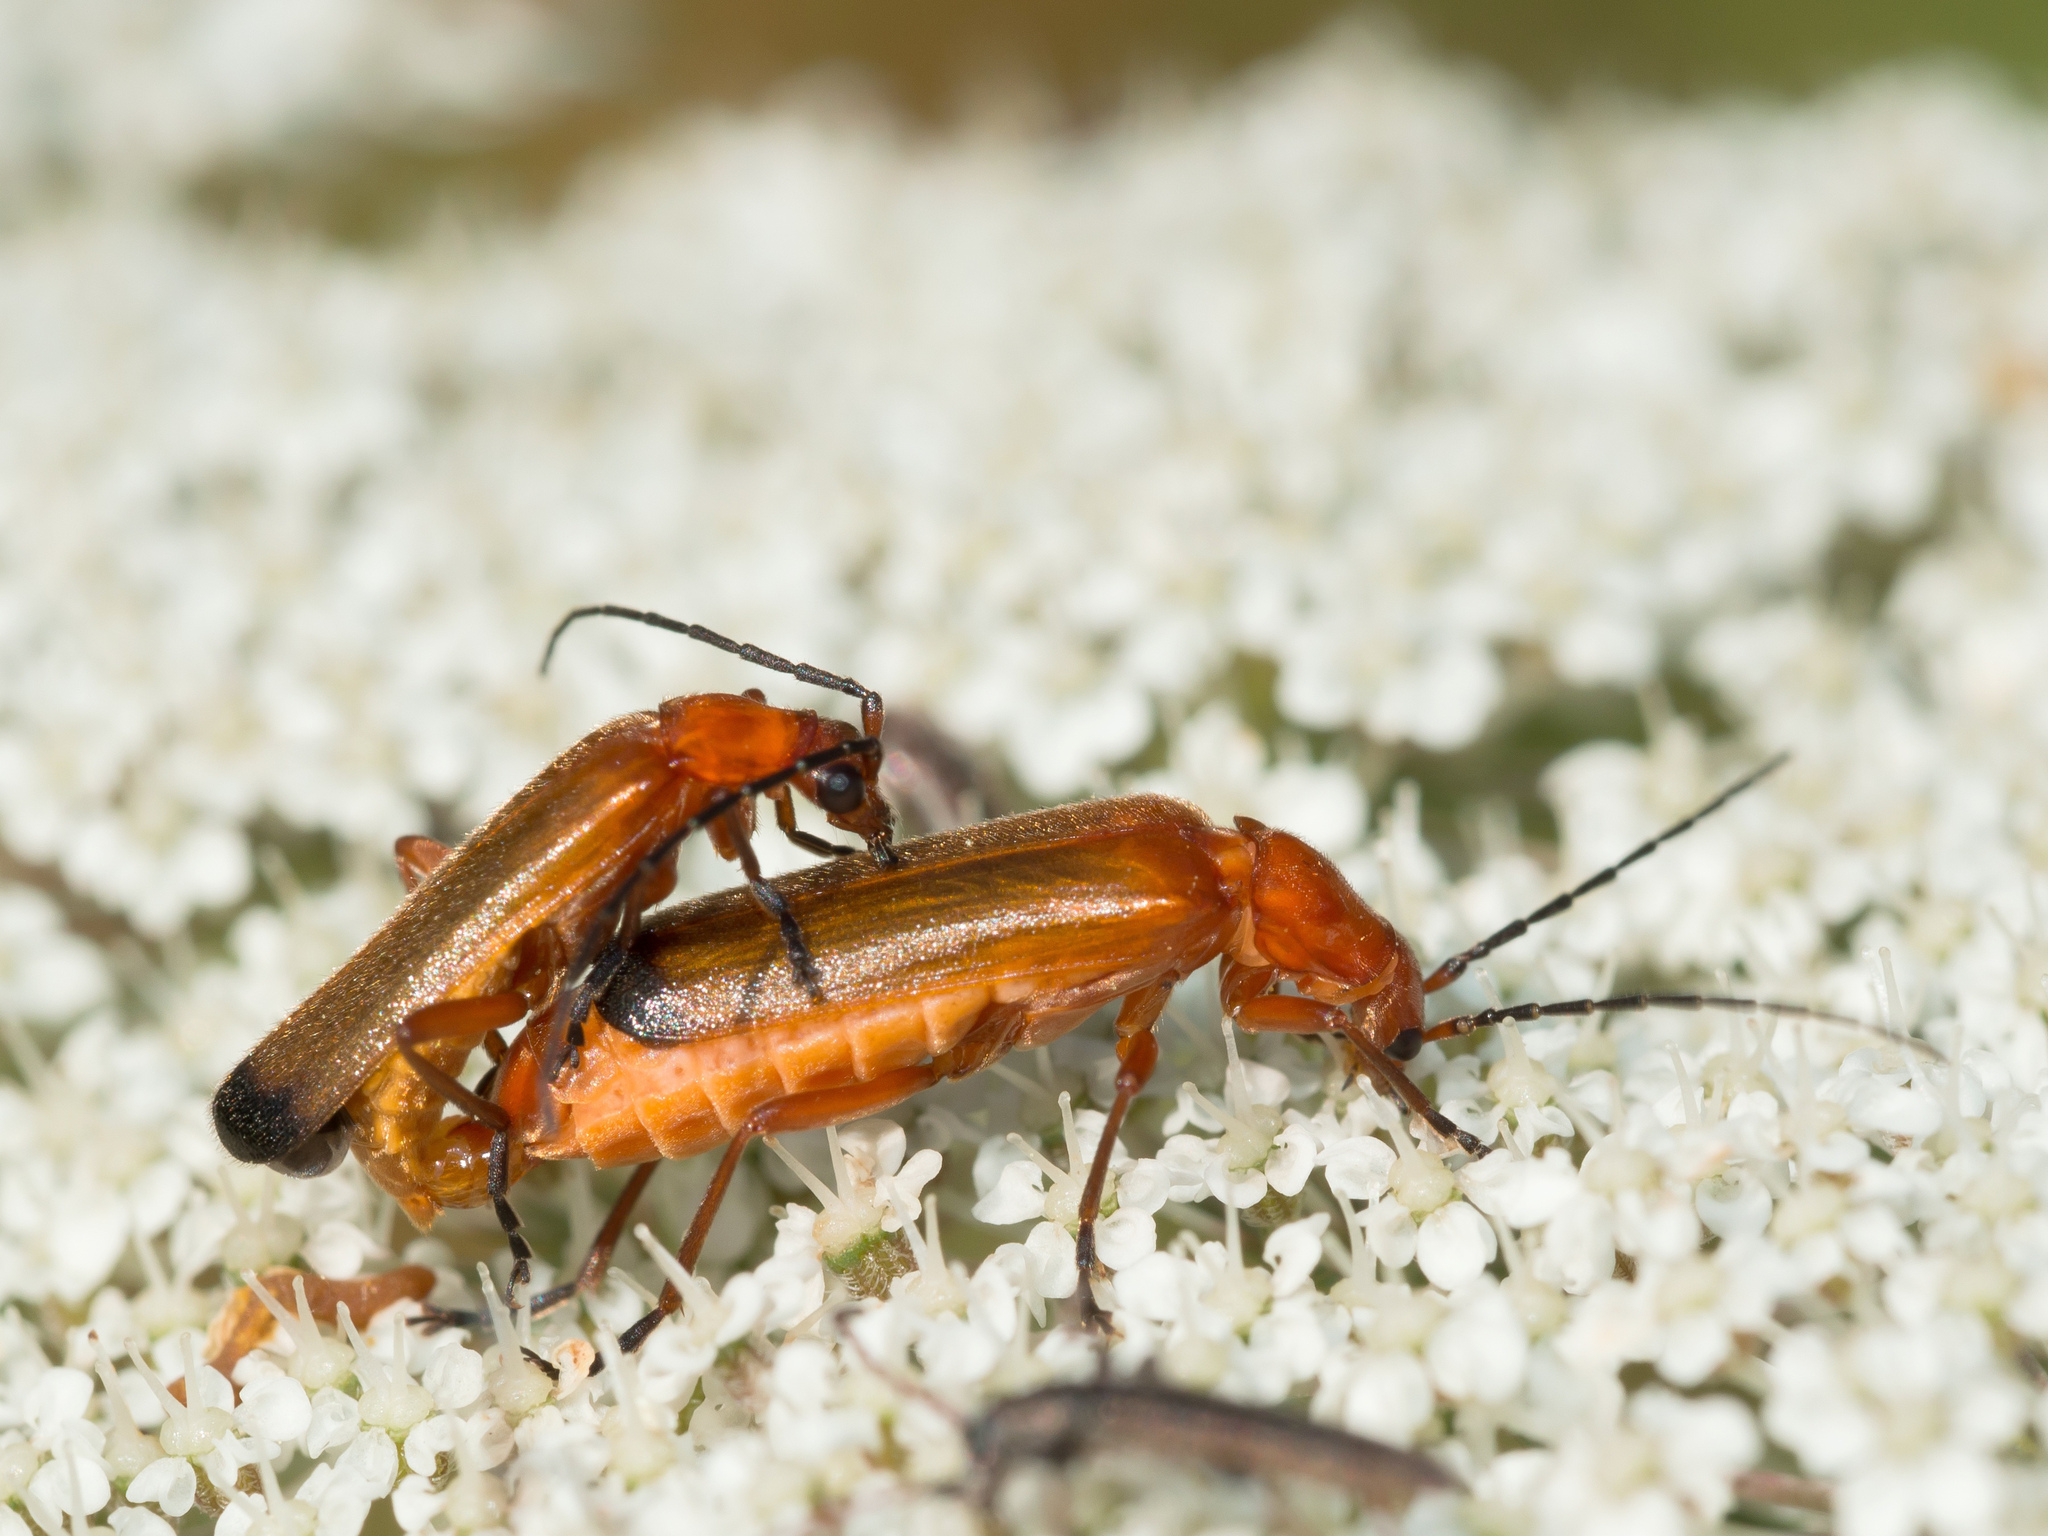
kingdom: Animalia
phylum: Arthropoda
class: Insecta
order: Coleoptera
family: Cantharidae
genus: Rhagonycha
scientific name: Rhagonycha fulva
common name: Common red soldier beetle
